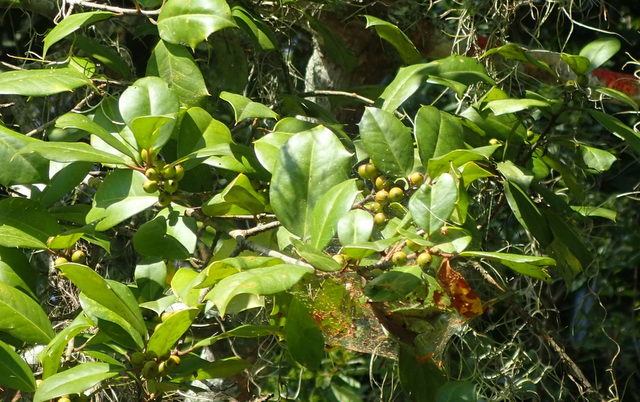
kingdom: Plantae
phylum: Tracheophyta
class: Magnoliopsida
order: Aquifoliales
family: Aquifoliaceae
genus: Ilex
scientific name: Ilex opaca
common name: American holly
